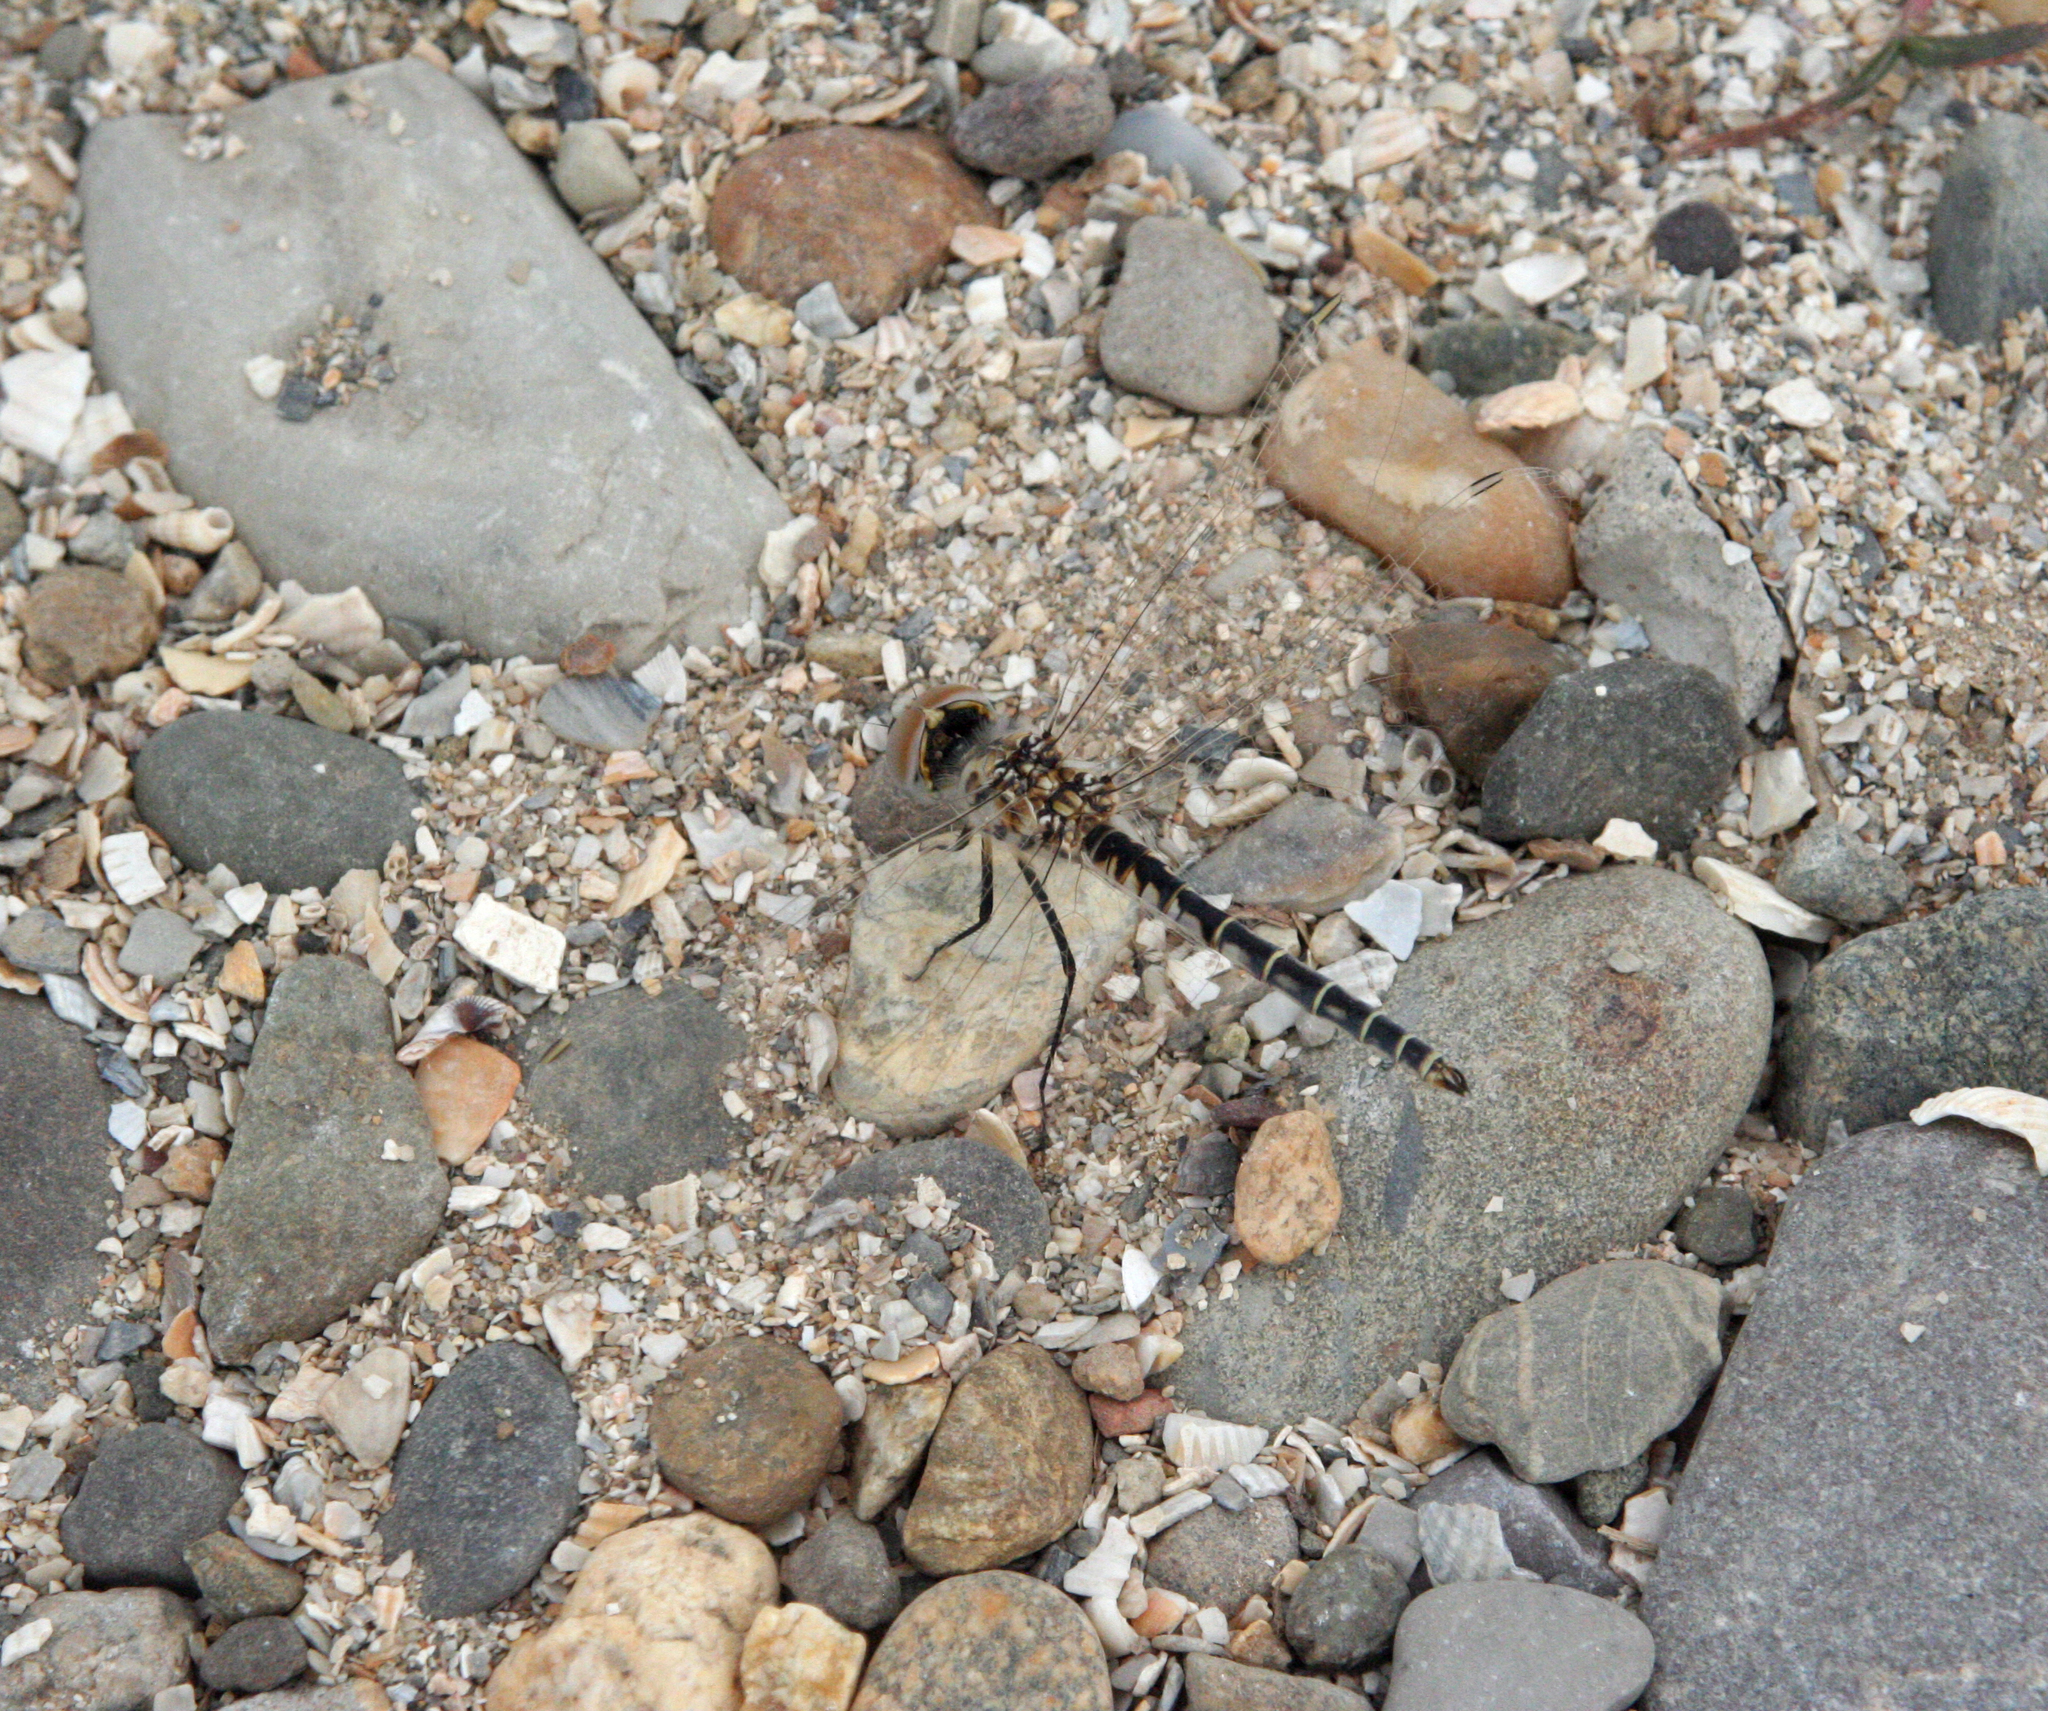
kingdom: Animalia
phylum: Arthropoda
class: Insecta
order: Odonata
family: Libellulidae
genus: Selysiothemis
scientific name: Selysiothemis nigra
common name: Black pennant
